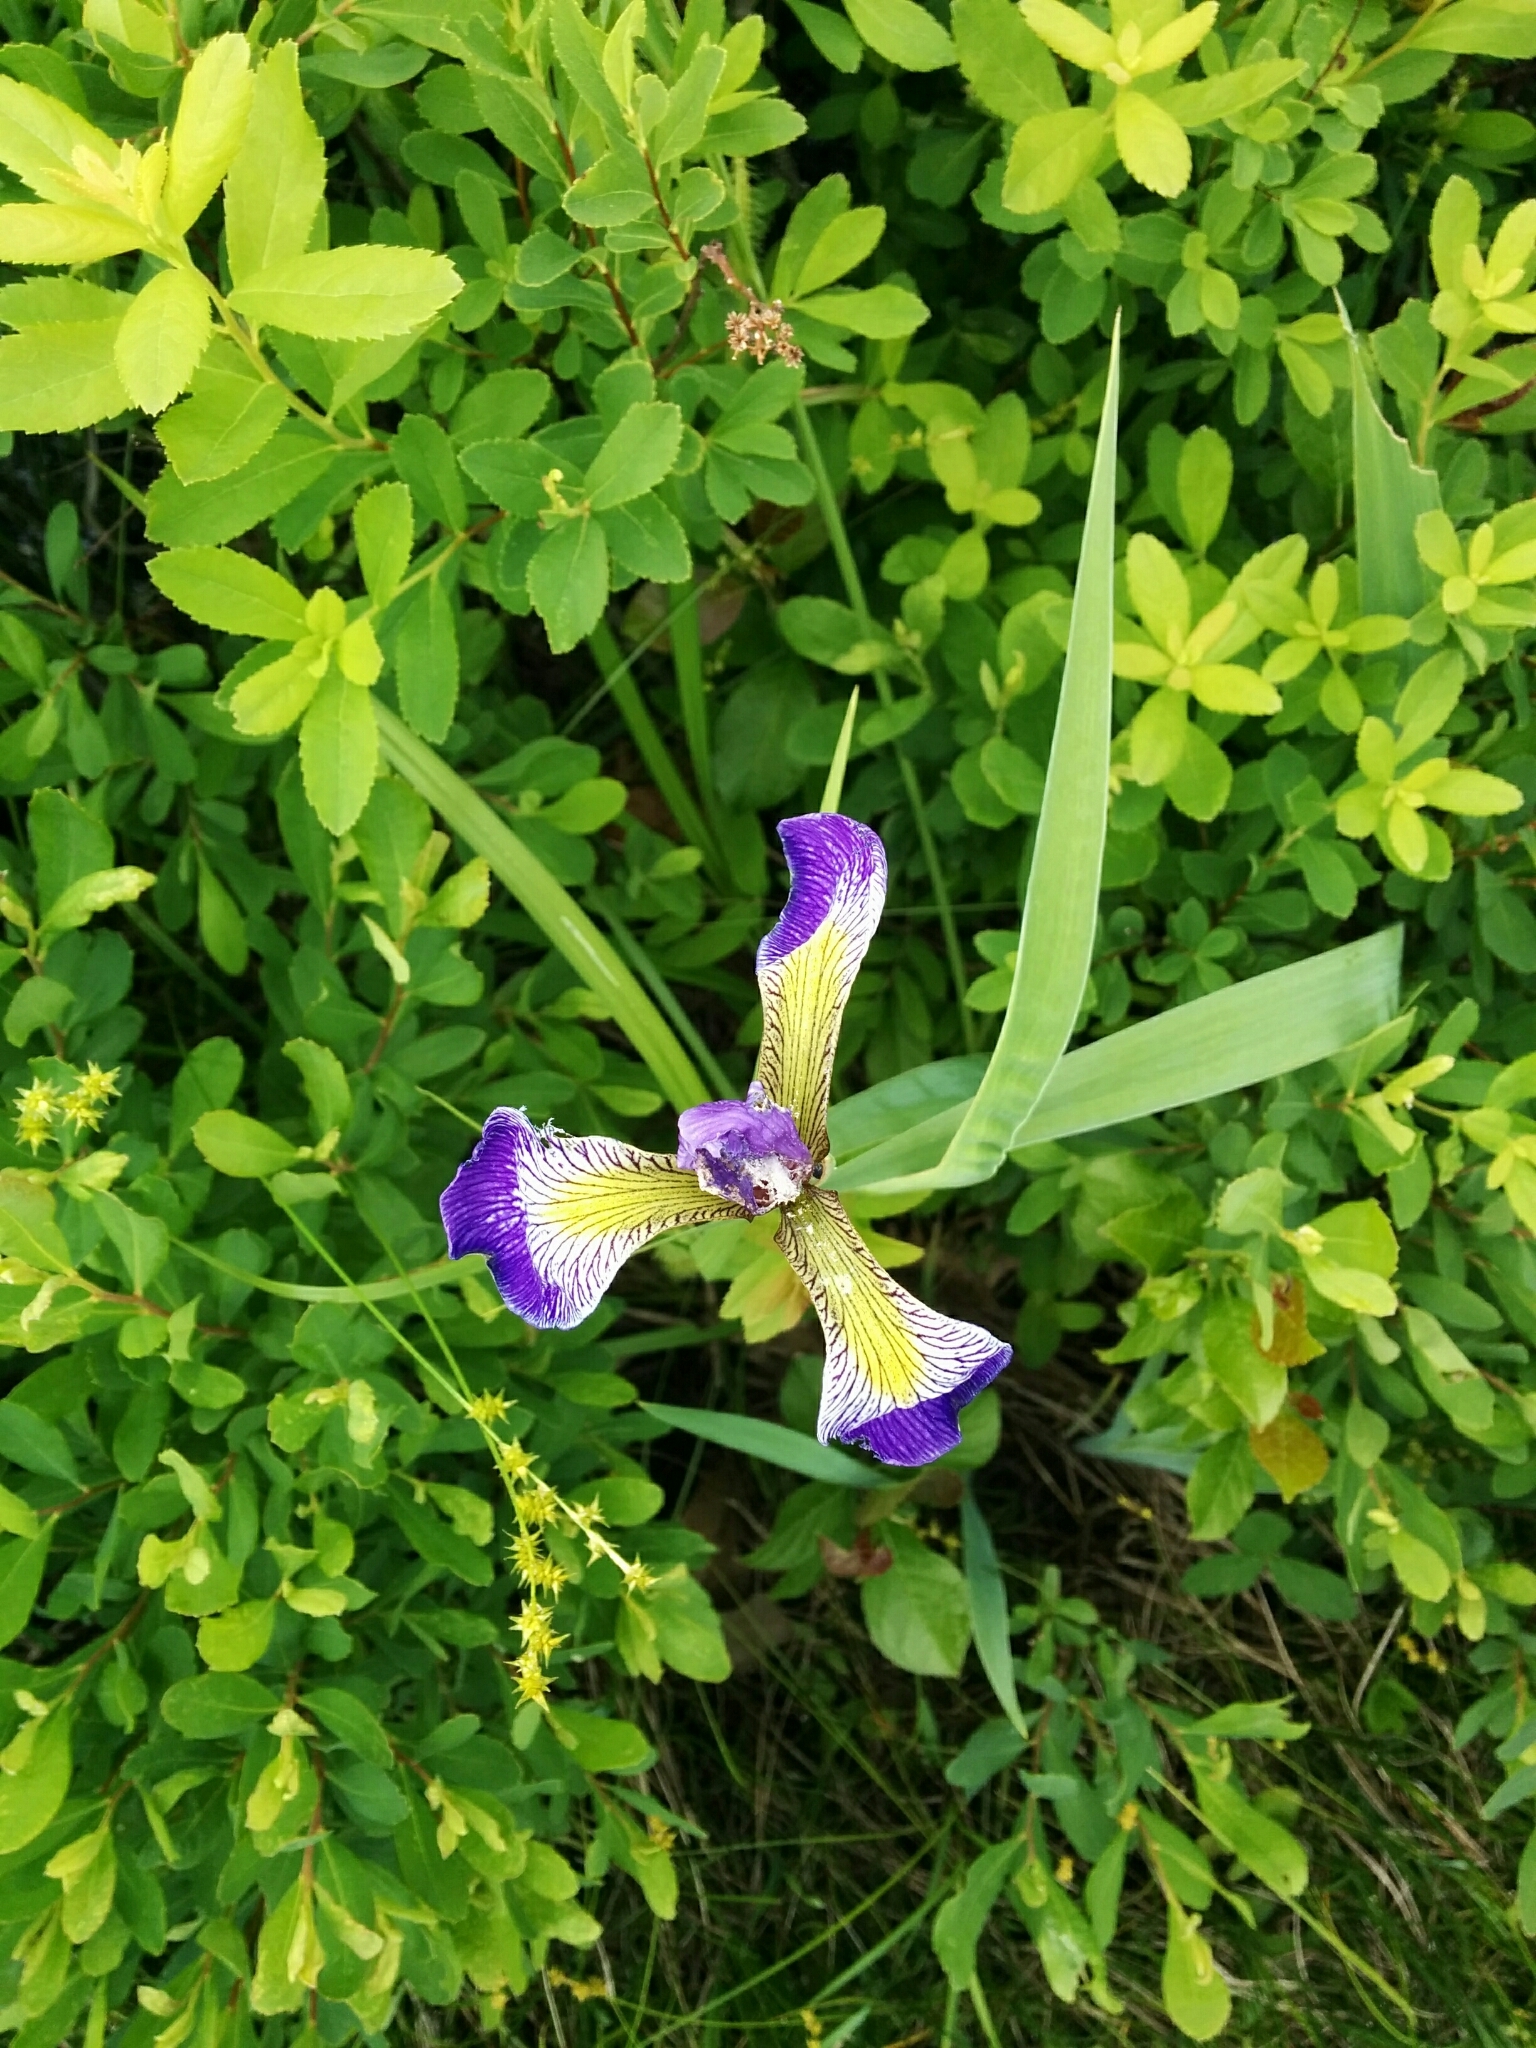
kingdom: Plantae
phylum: Tracheophyta
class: Liliopsida
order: Asparagales
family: Iridaceae
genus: Iris
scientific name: Iris versicolor
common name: Purple iris
